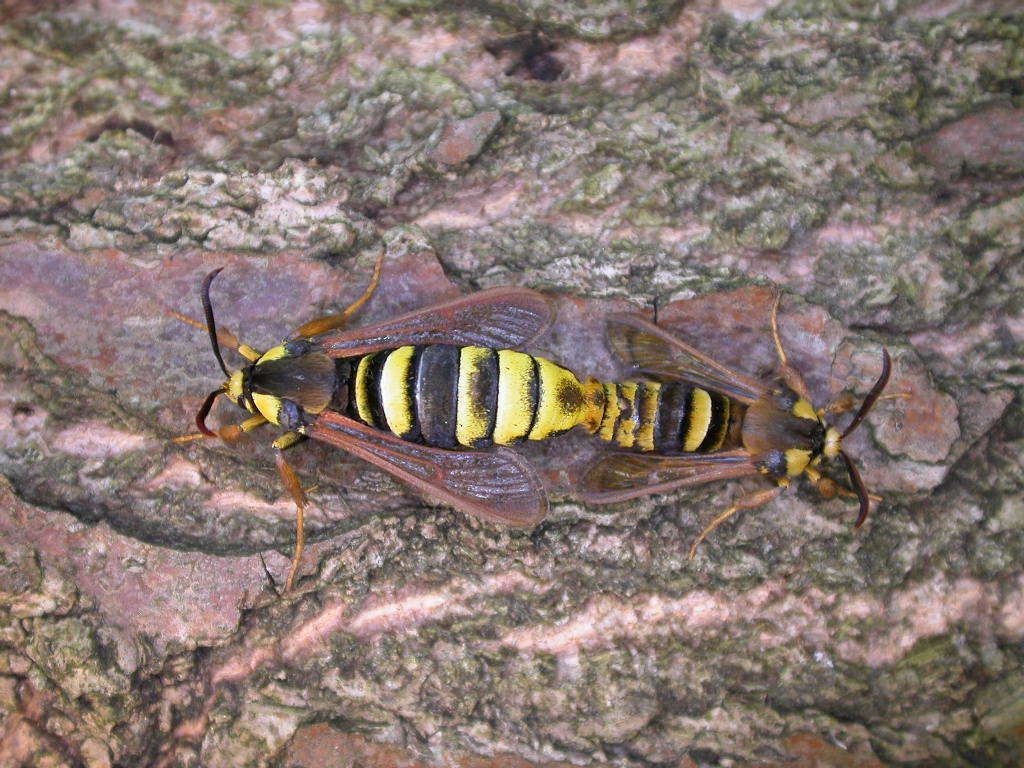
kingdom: Animalia
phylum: Arthropoda
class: Insecta
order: Lepidoptera
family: Sesiidae
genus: Sesia
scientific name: Sesia apiformis
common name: Hornet moth
